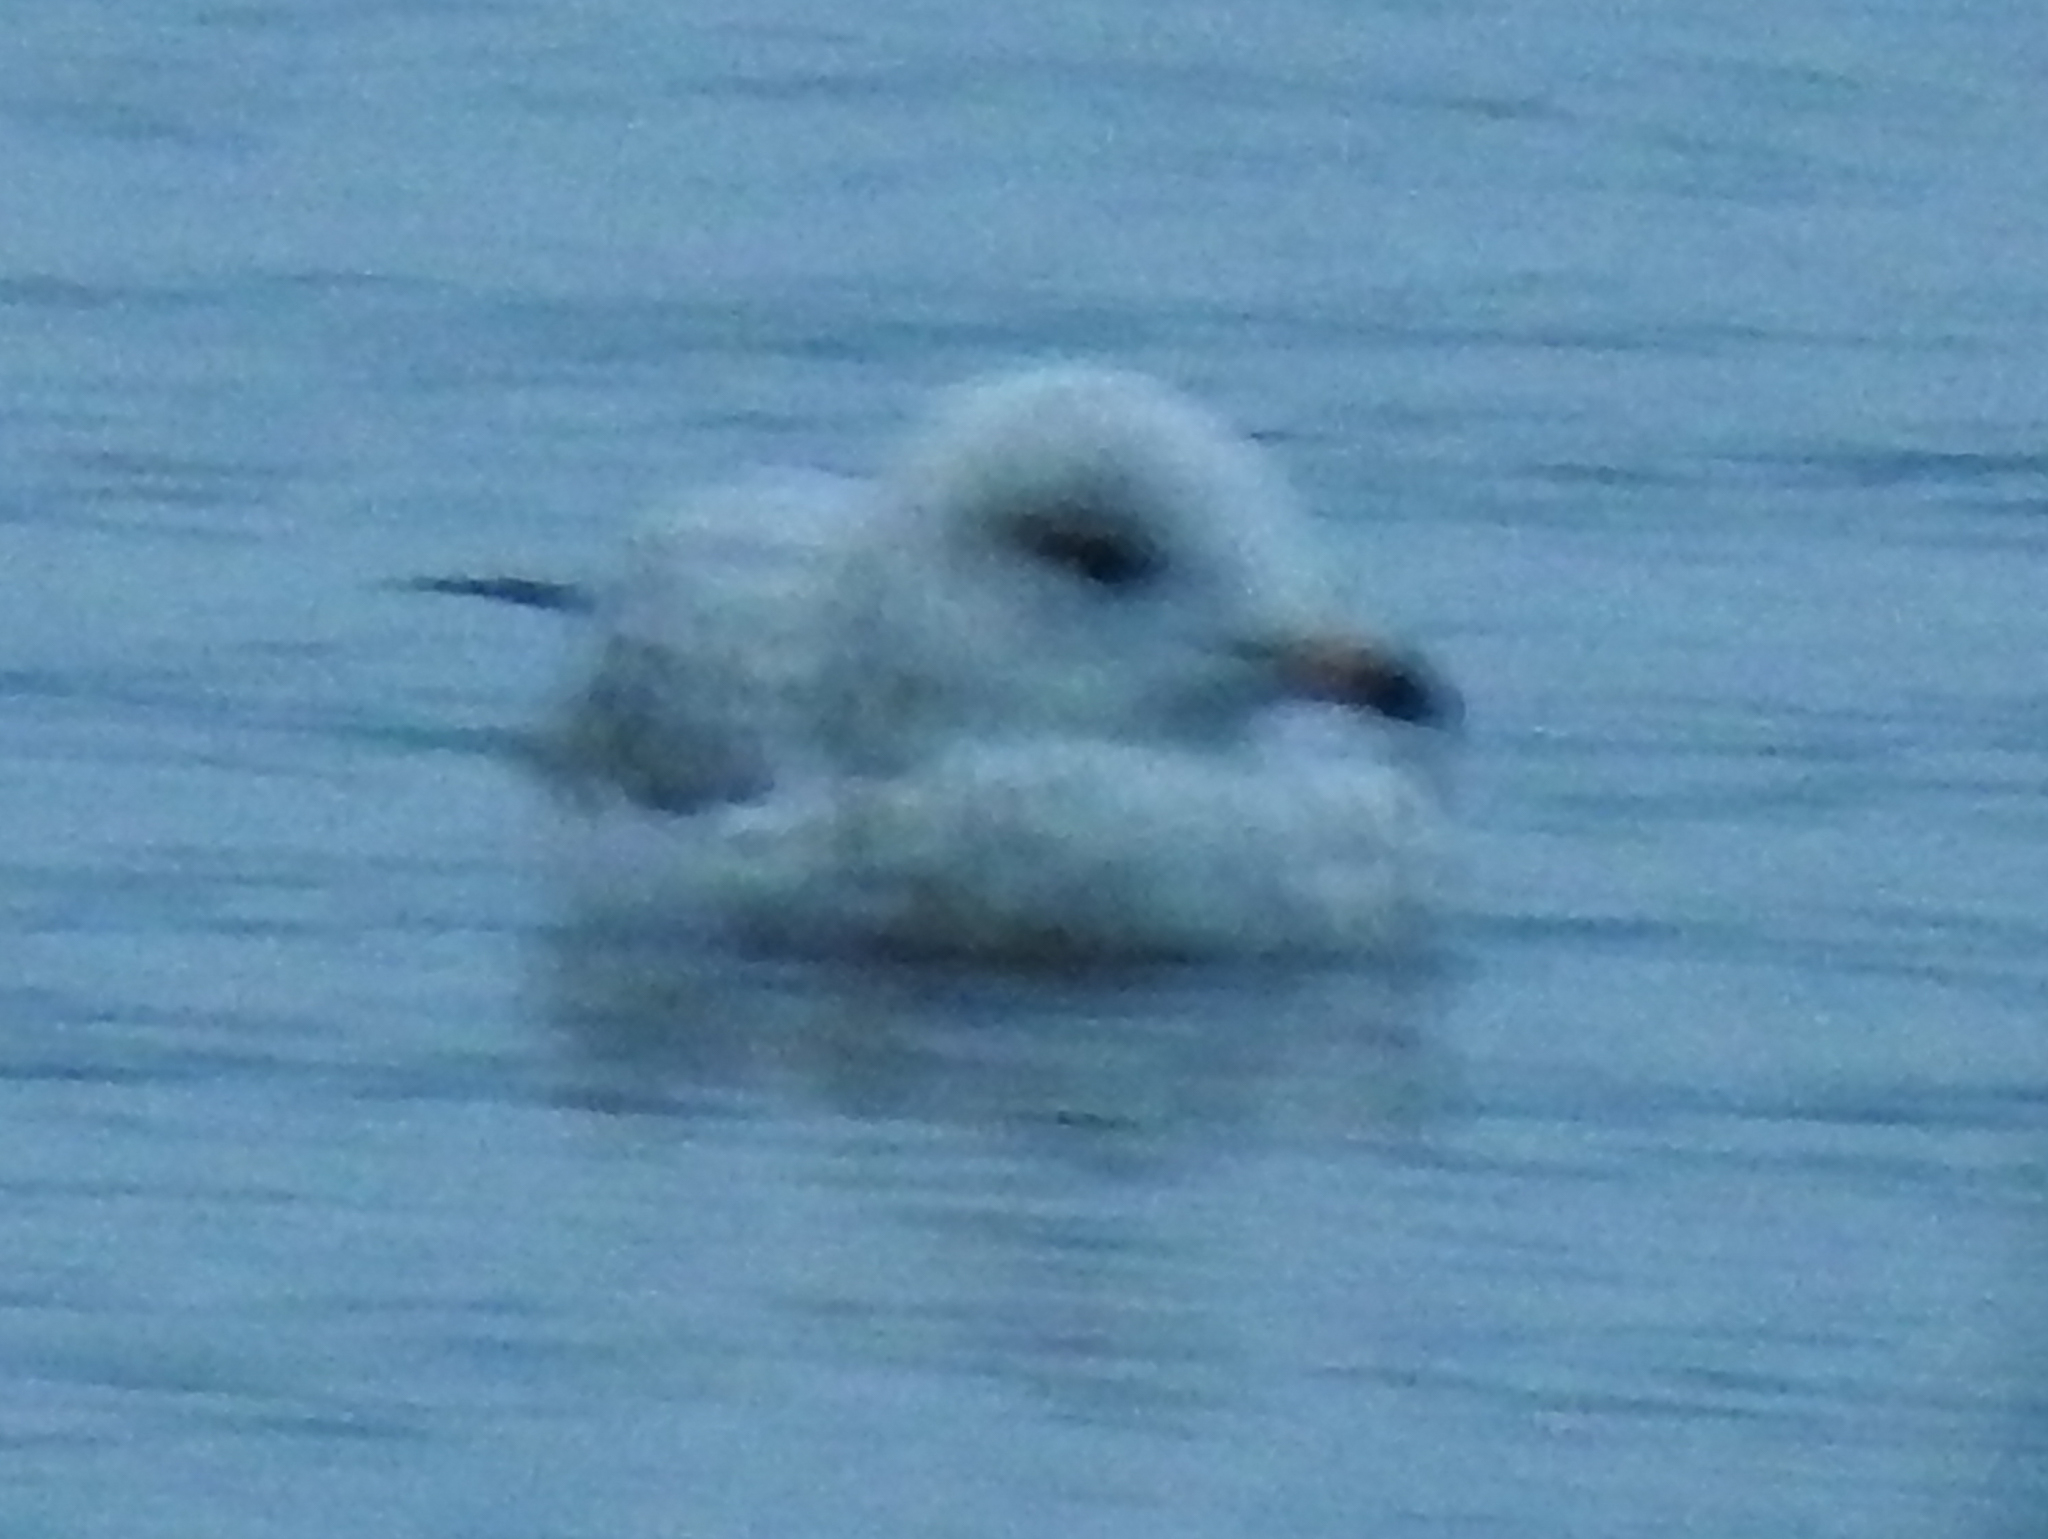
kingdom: Animalia
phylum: Chordata
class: Aves
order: Charadriiformes
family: Laridae
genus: Larus
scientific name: Larus delawarensis
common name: Ring-billed gull
